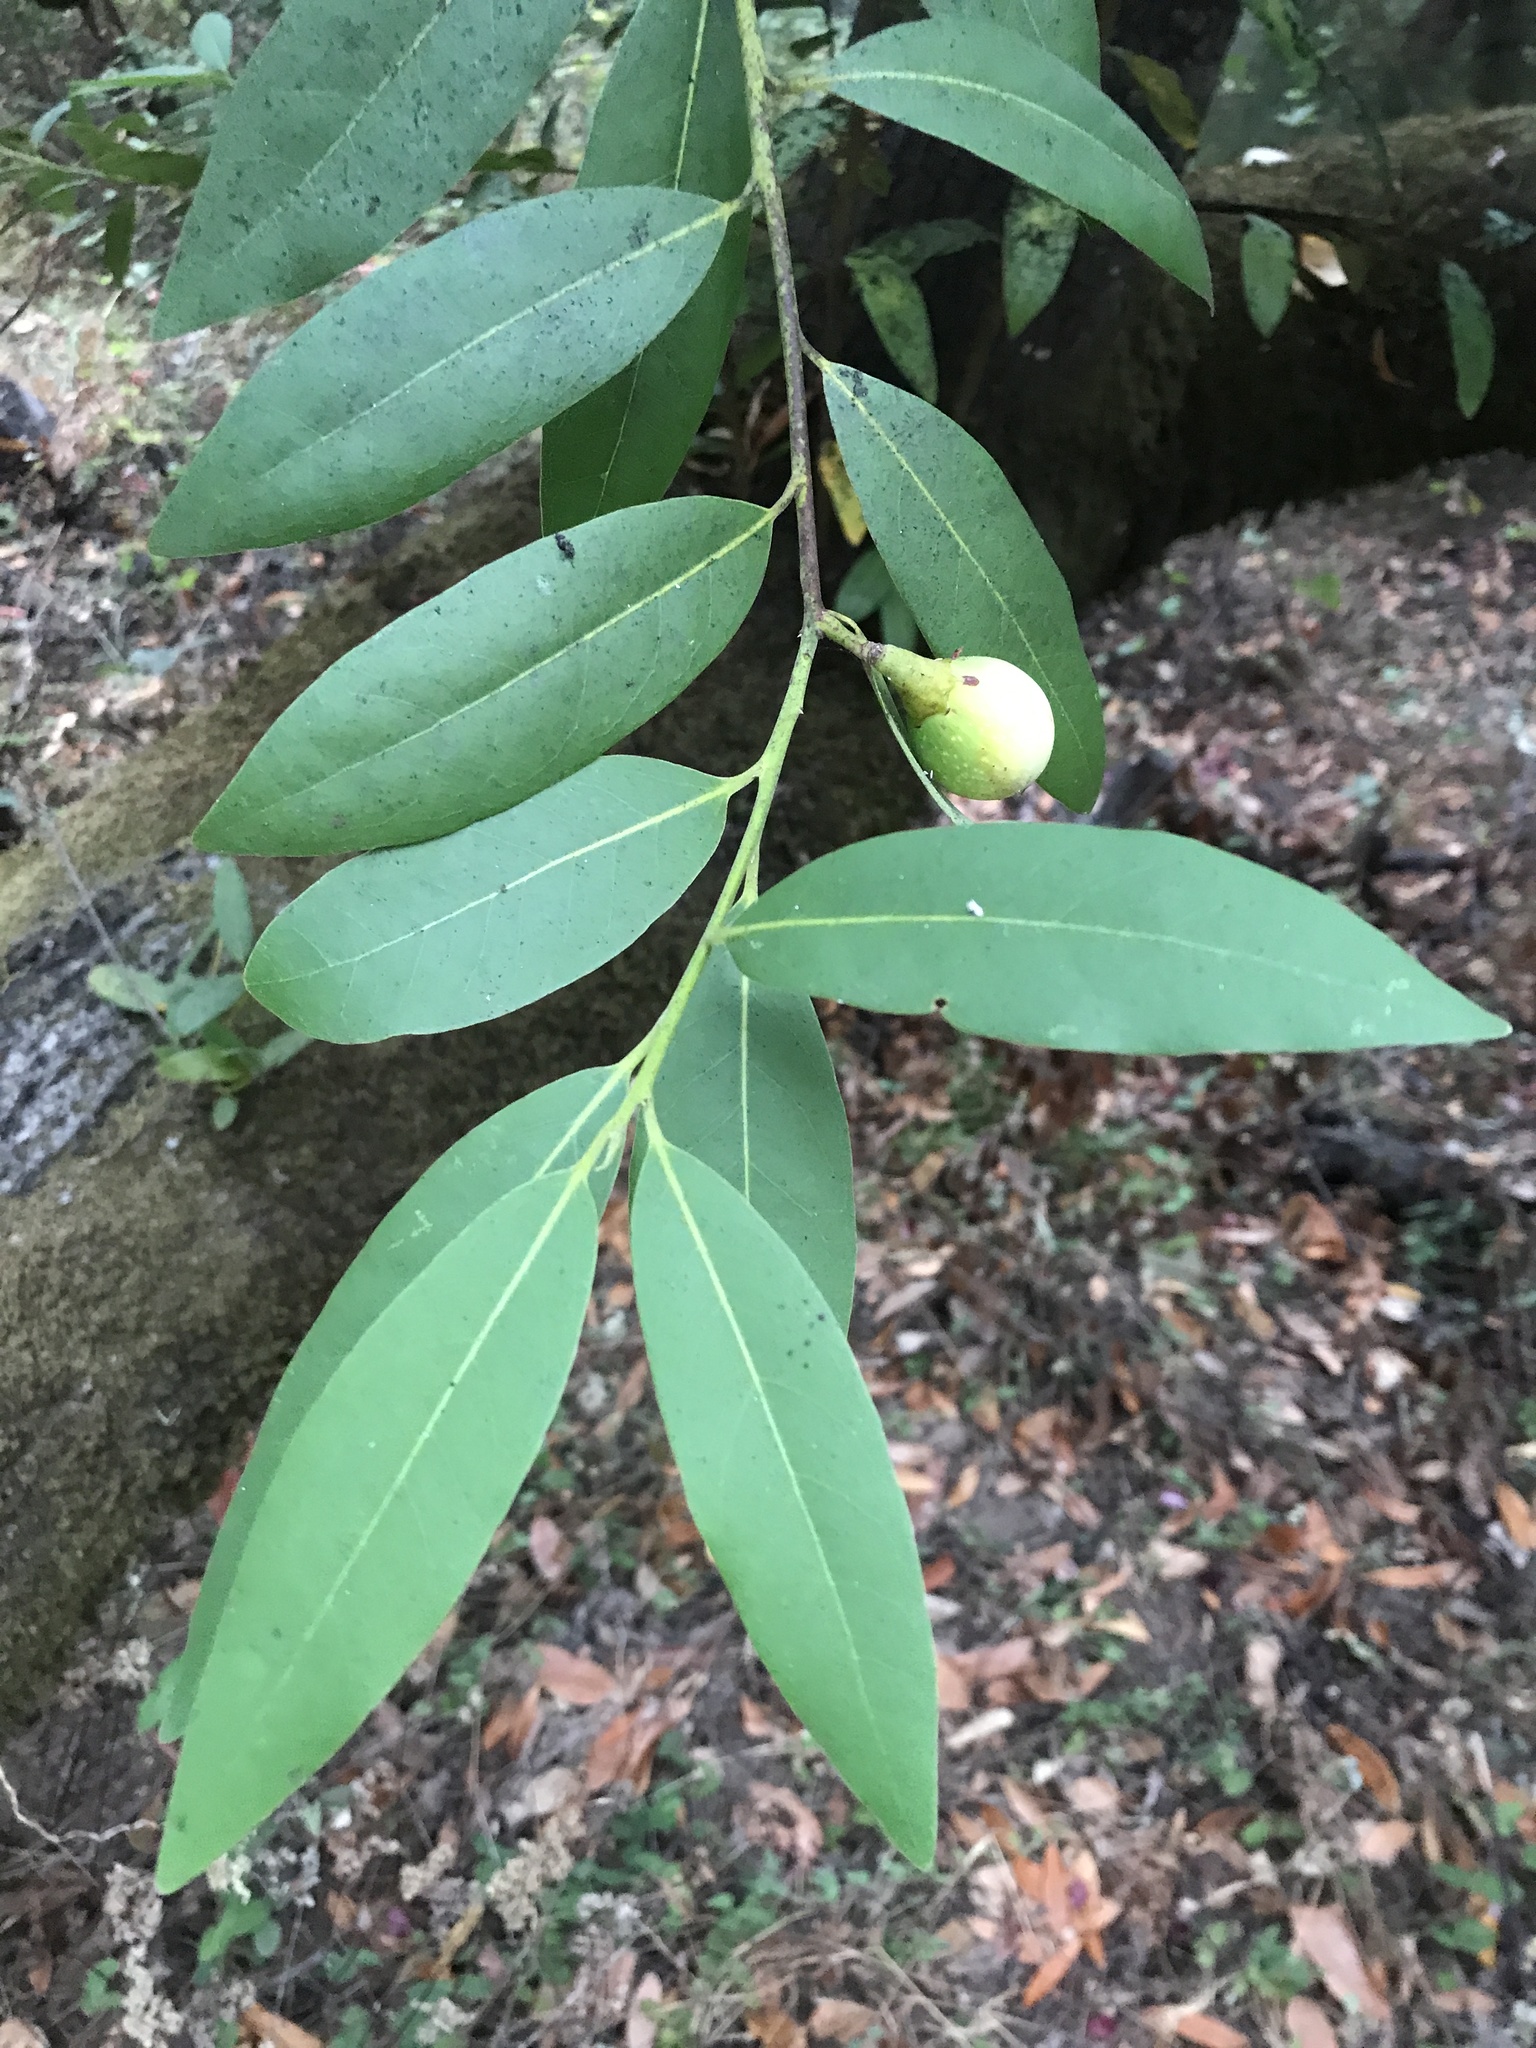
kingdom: Plantae
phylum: Tracheophyta
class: Magnoliopsida
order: Laurales
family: Lauraceae
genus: Umbellularia
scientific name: Umbellularia californica
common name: California bay
